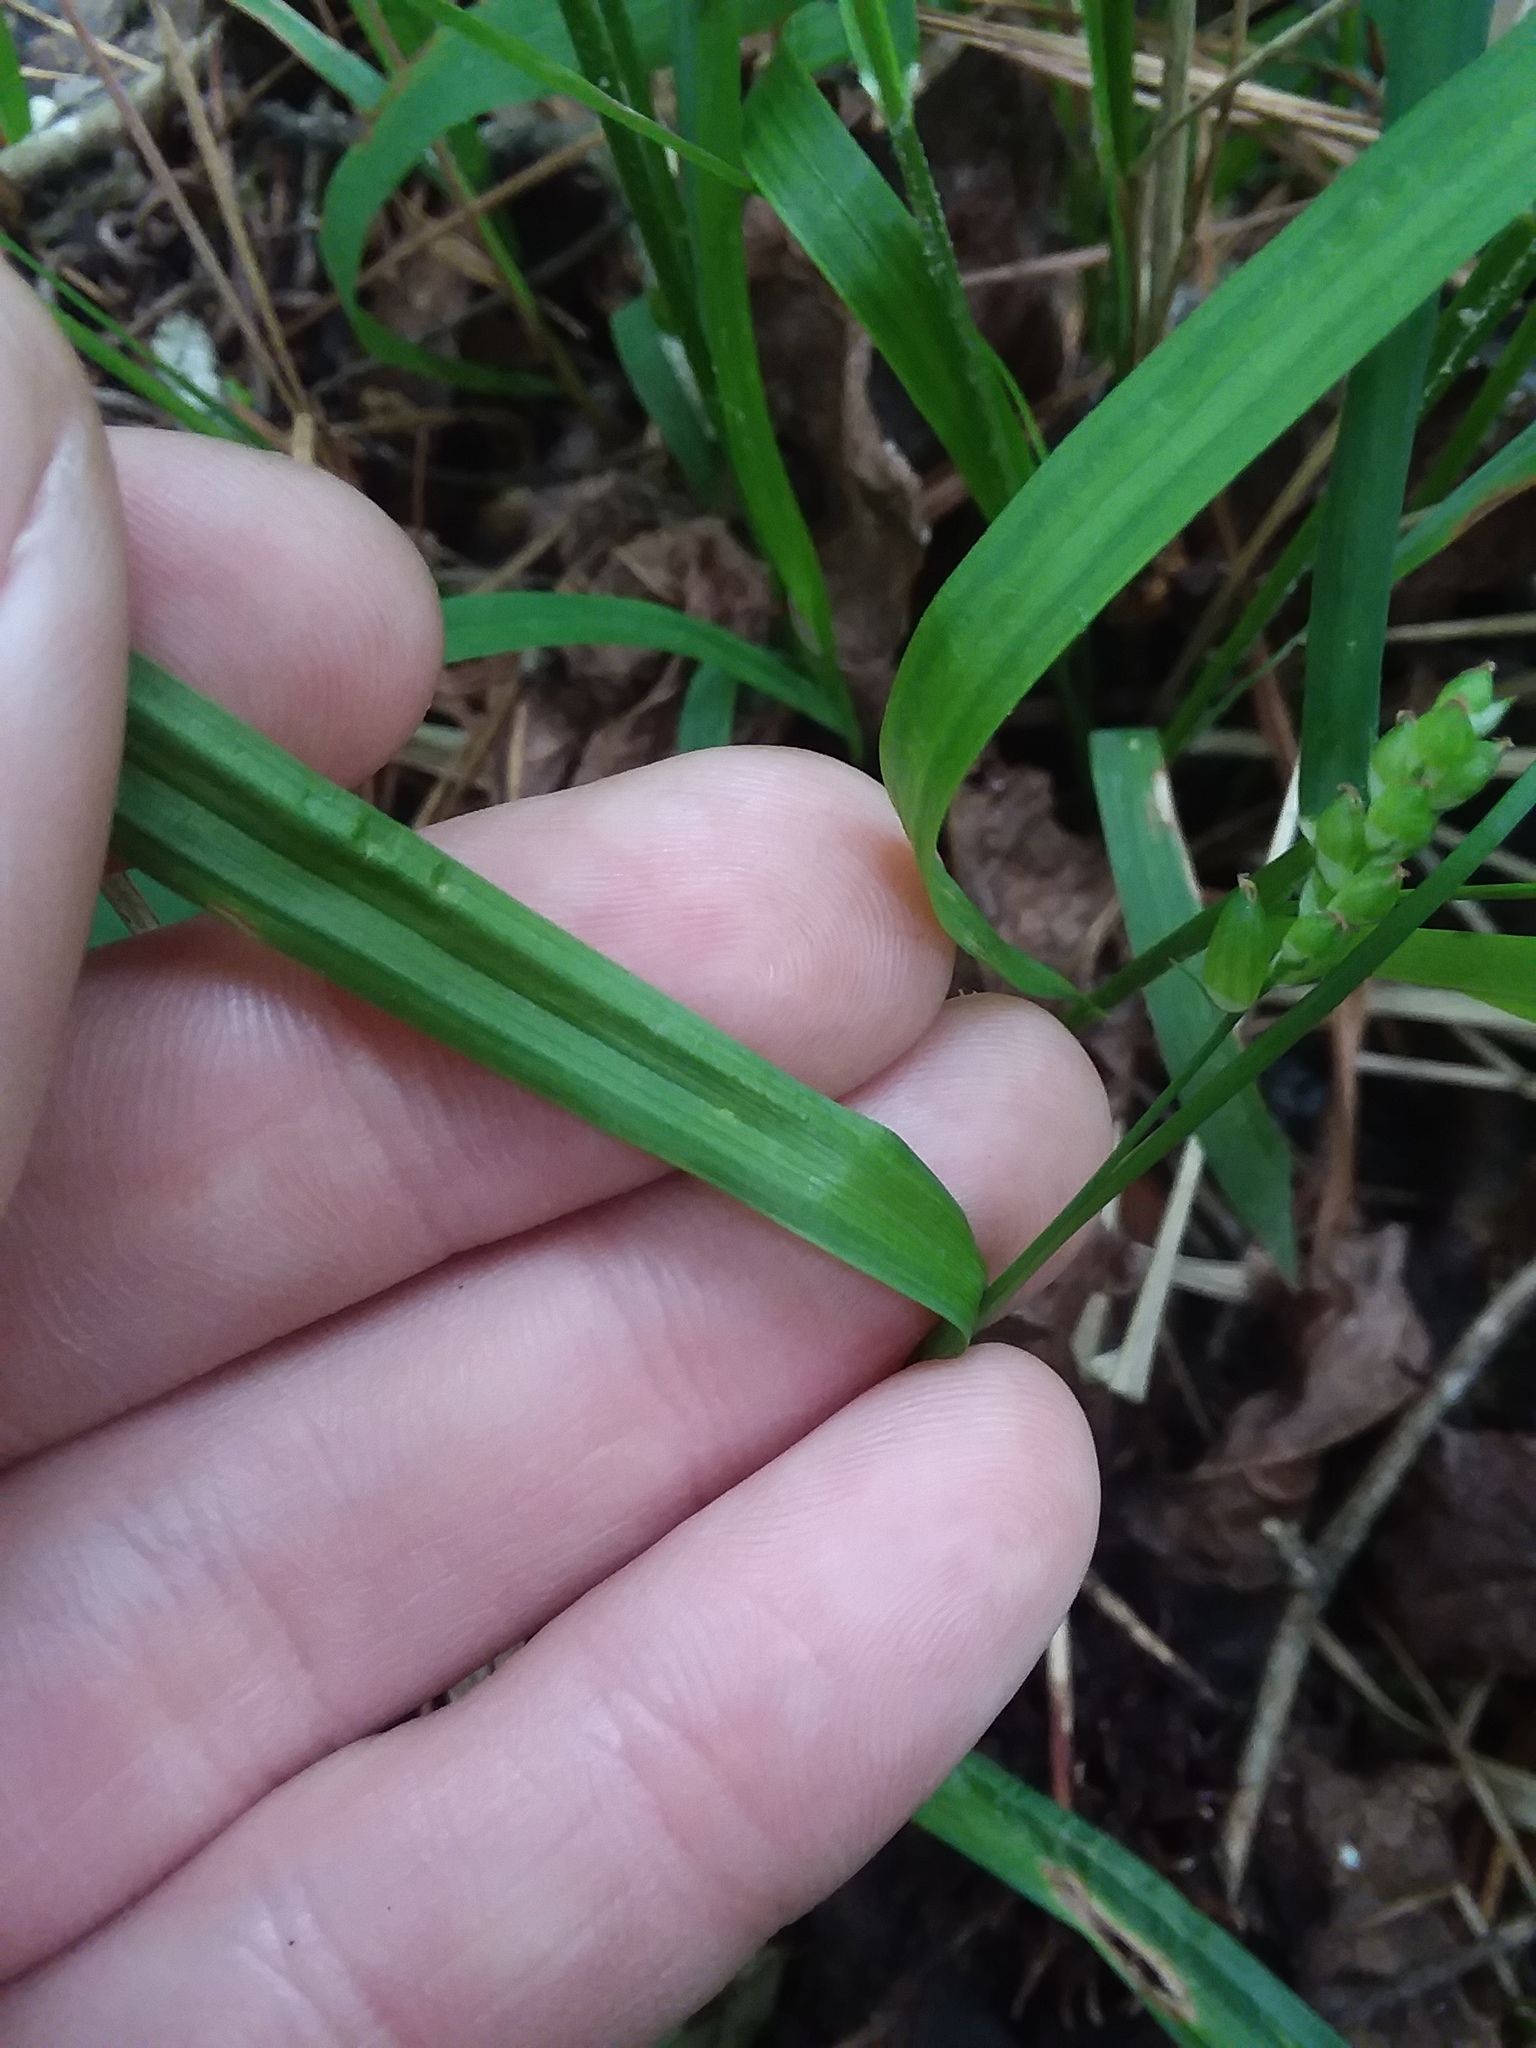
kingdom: Plantae
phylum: Tracheophyta
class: Liliopsida
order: Poales
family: Cyperaceae
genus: Carex
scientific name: Carex flaccosperma
